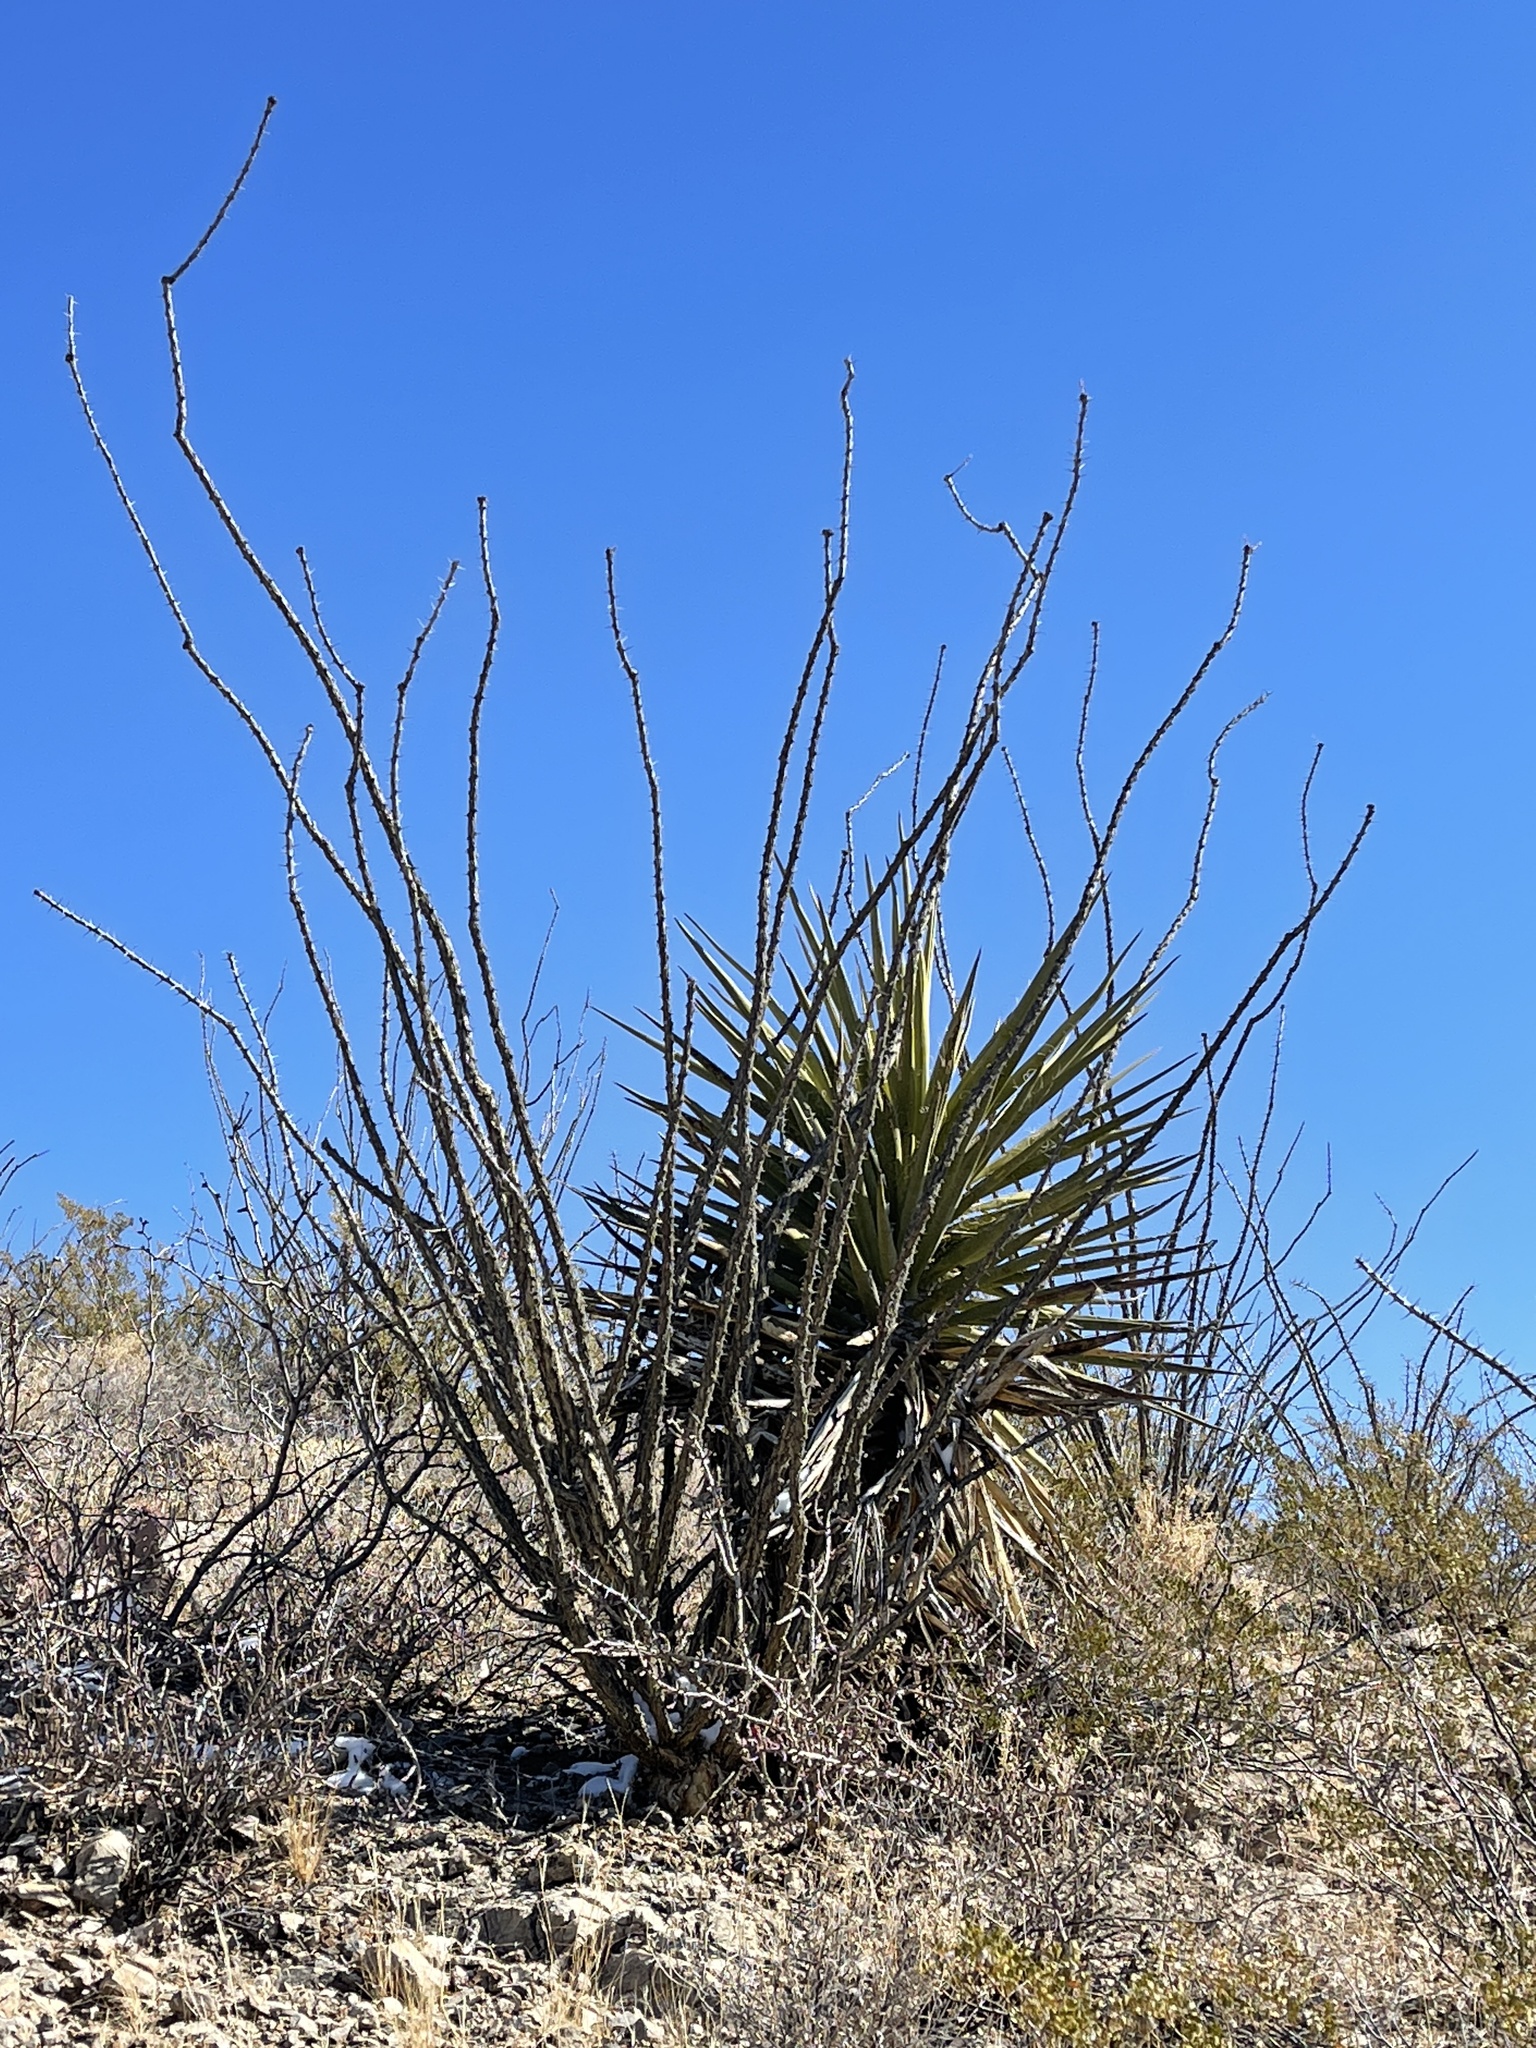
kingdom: Plantae
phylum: Tracheophyta
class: Magnoliopsida
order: Ericales
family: Fouquieriaceae
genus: Fouquieria
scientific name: Fouquieria splendens
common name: Vine-cactus
